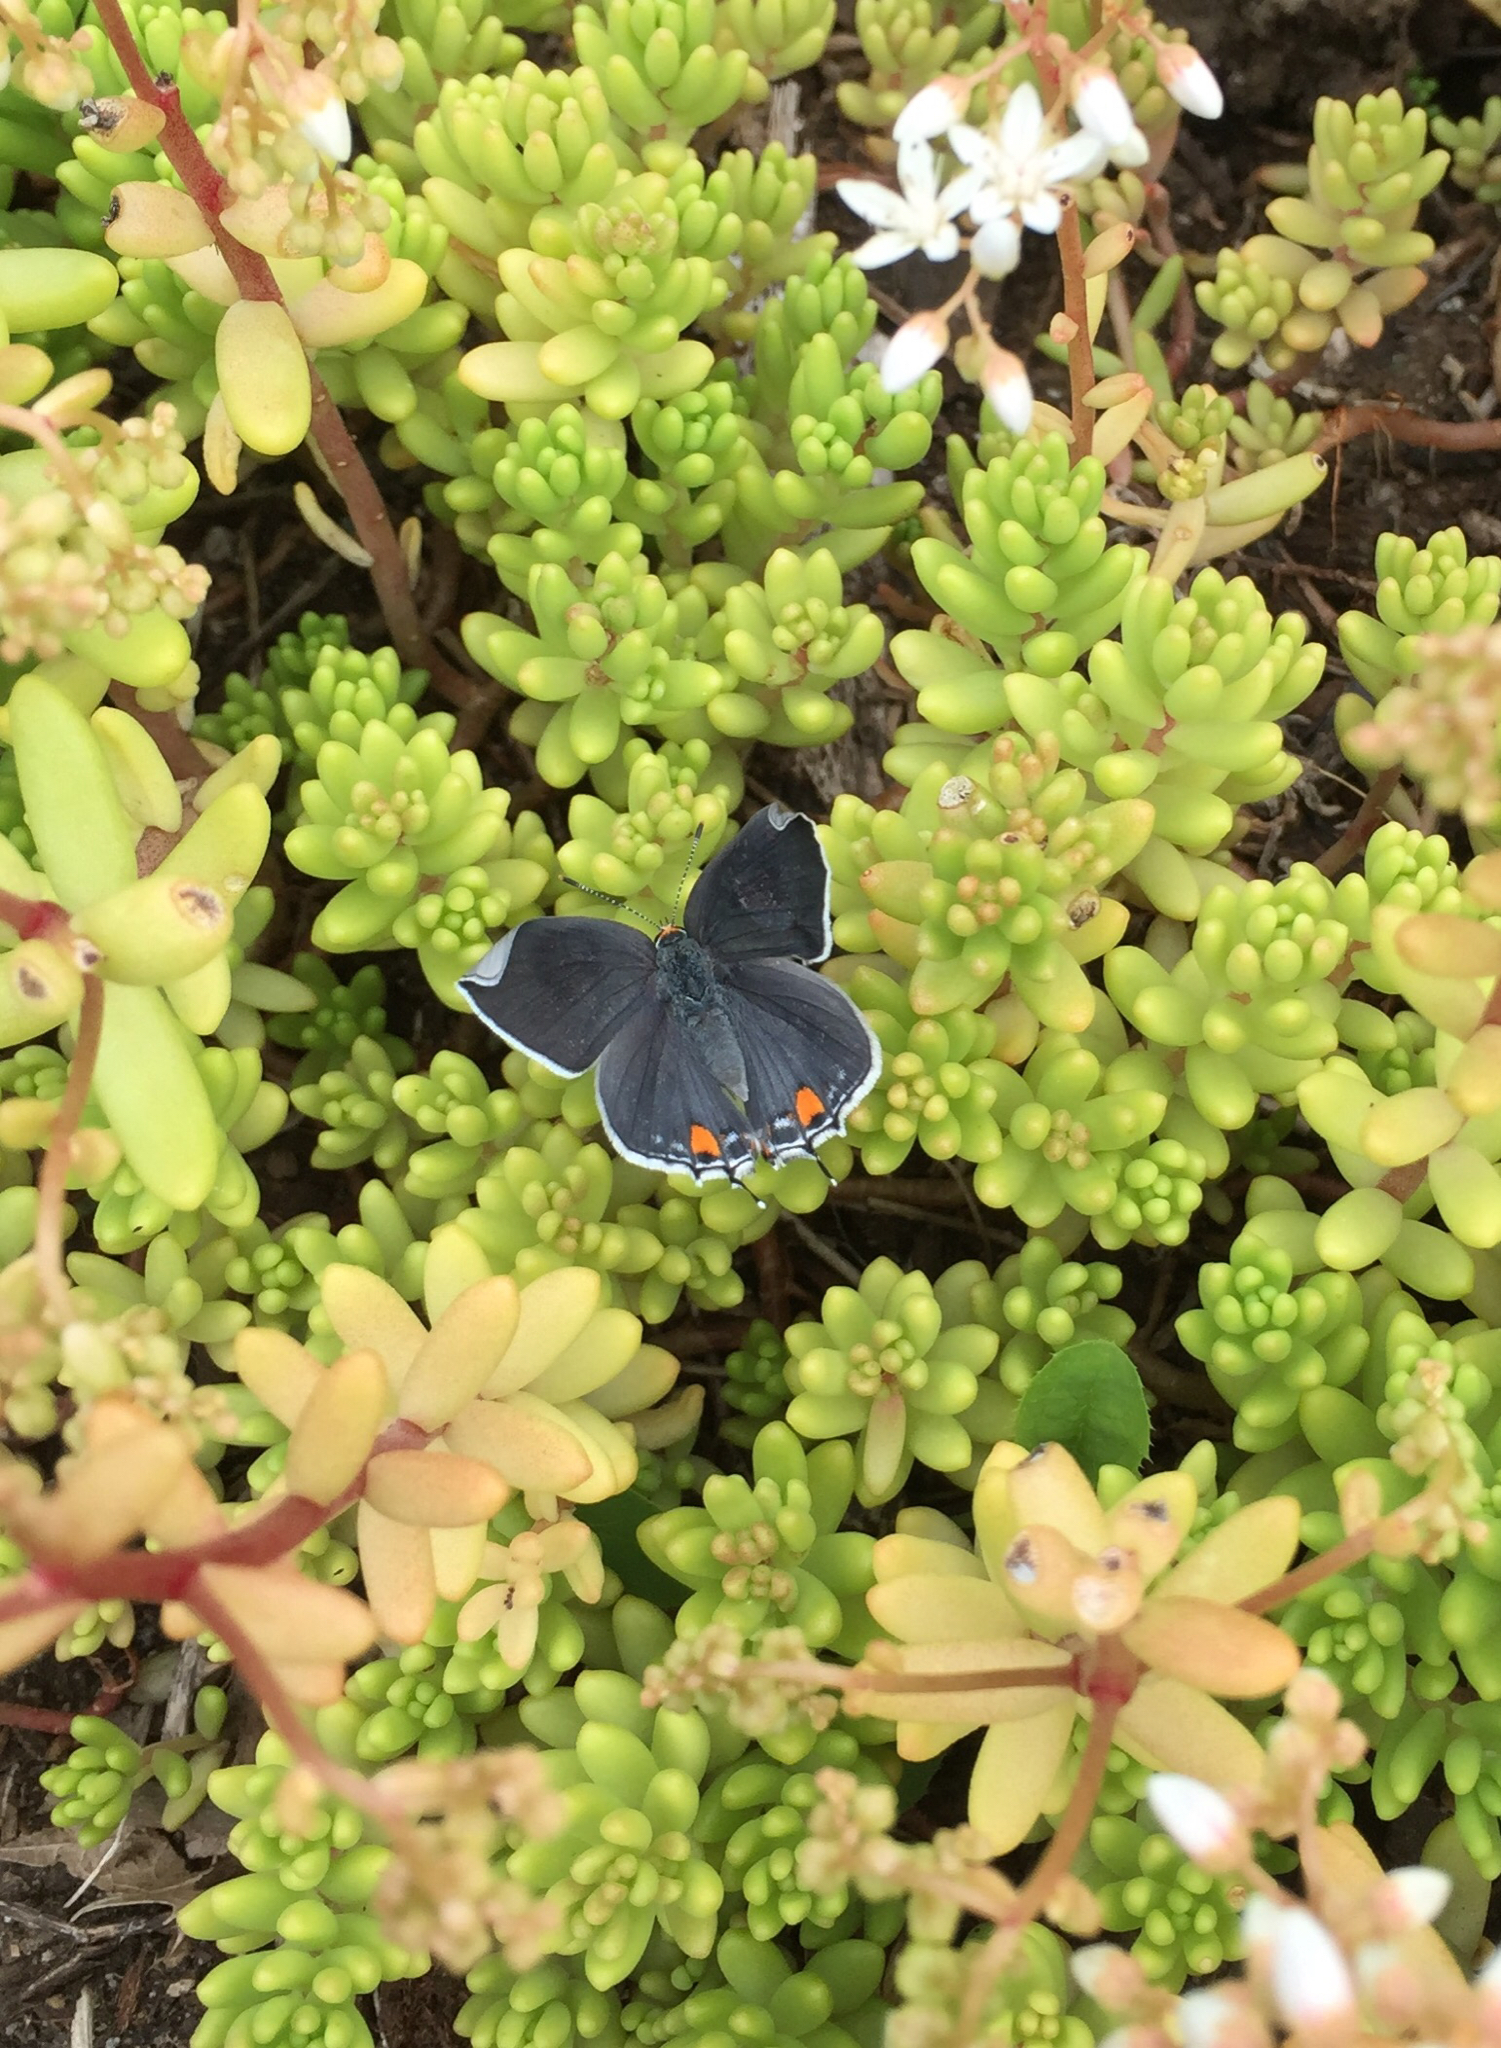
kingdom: Animalia
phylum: Arthropoda
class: Insecta
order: Lepidoptera
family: Lycaenidae
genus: Strymon
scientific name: Strymon melinus
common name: Gray hairstreak
